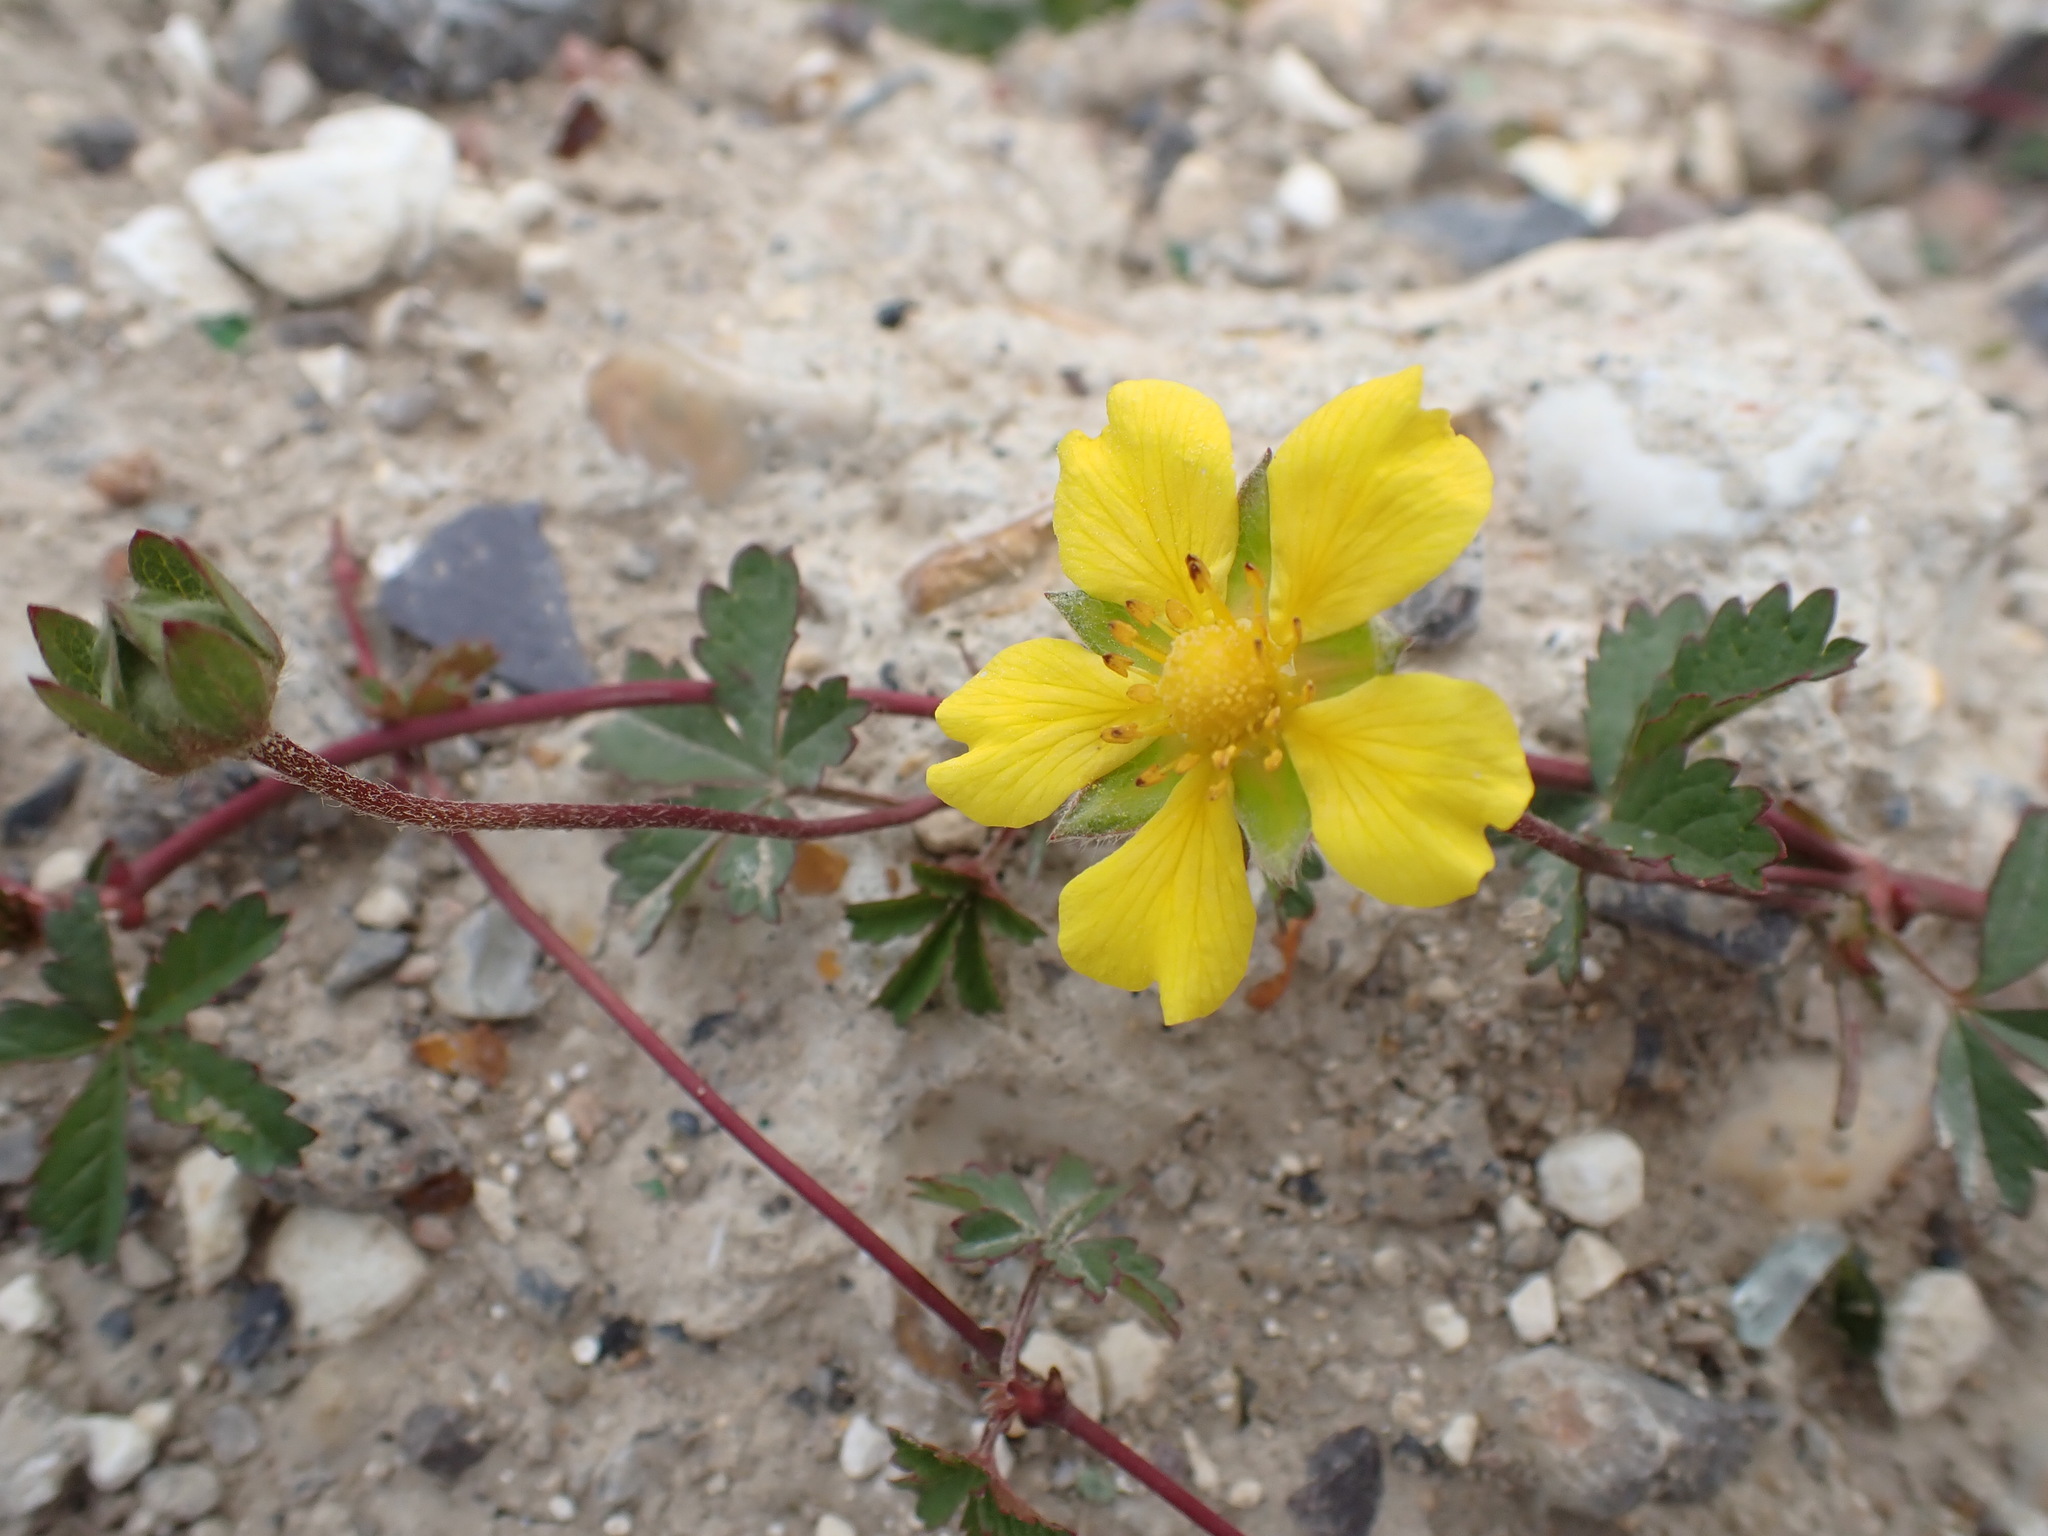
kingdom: Plantae
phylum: Tracheophyta
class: Magnoliopsida
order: Rosales
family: Rosaceae
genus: Potentilla
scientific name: Potentilla reptans
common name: Creeping cinquefoil
